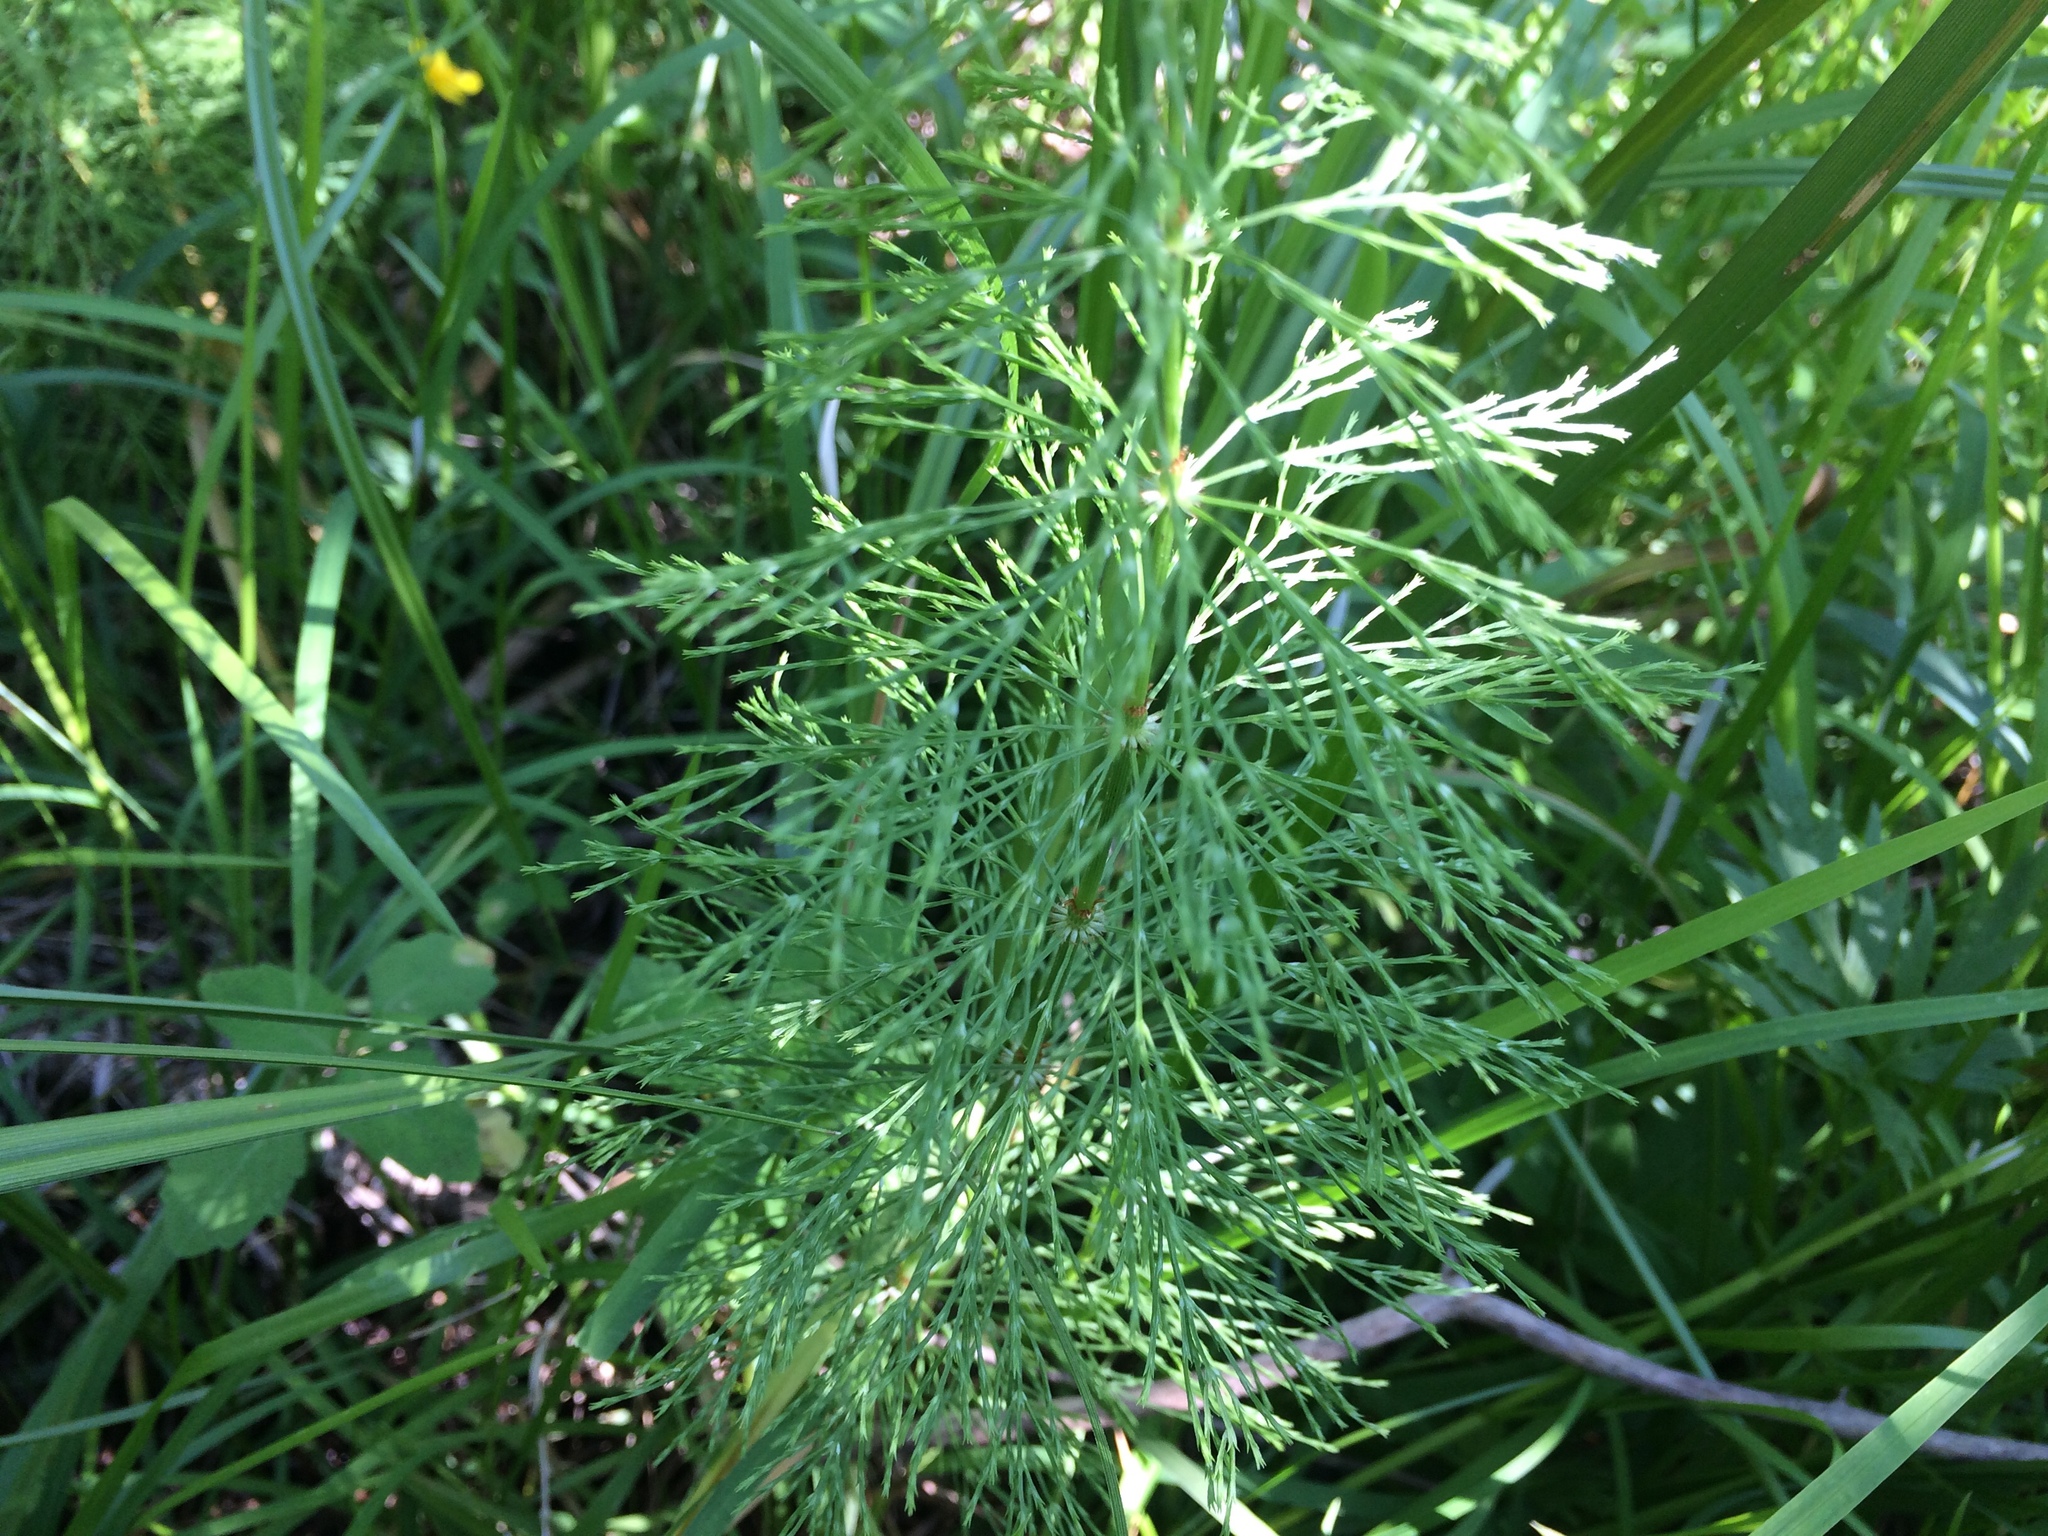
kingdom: Plantae
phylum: Tracheophyta
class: Polypodiopsida
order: Equisetales
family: Equisetaceae
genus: Equisetum
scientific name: Equisetum sylvaticum
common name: Wood horsetail
